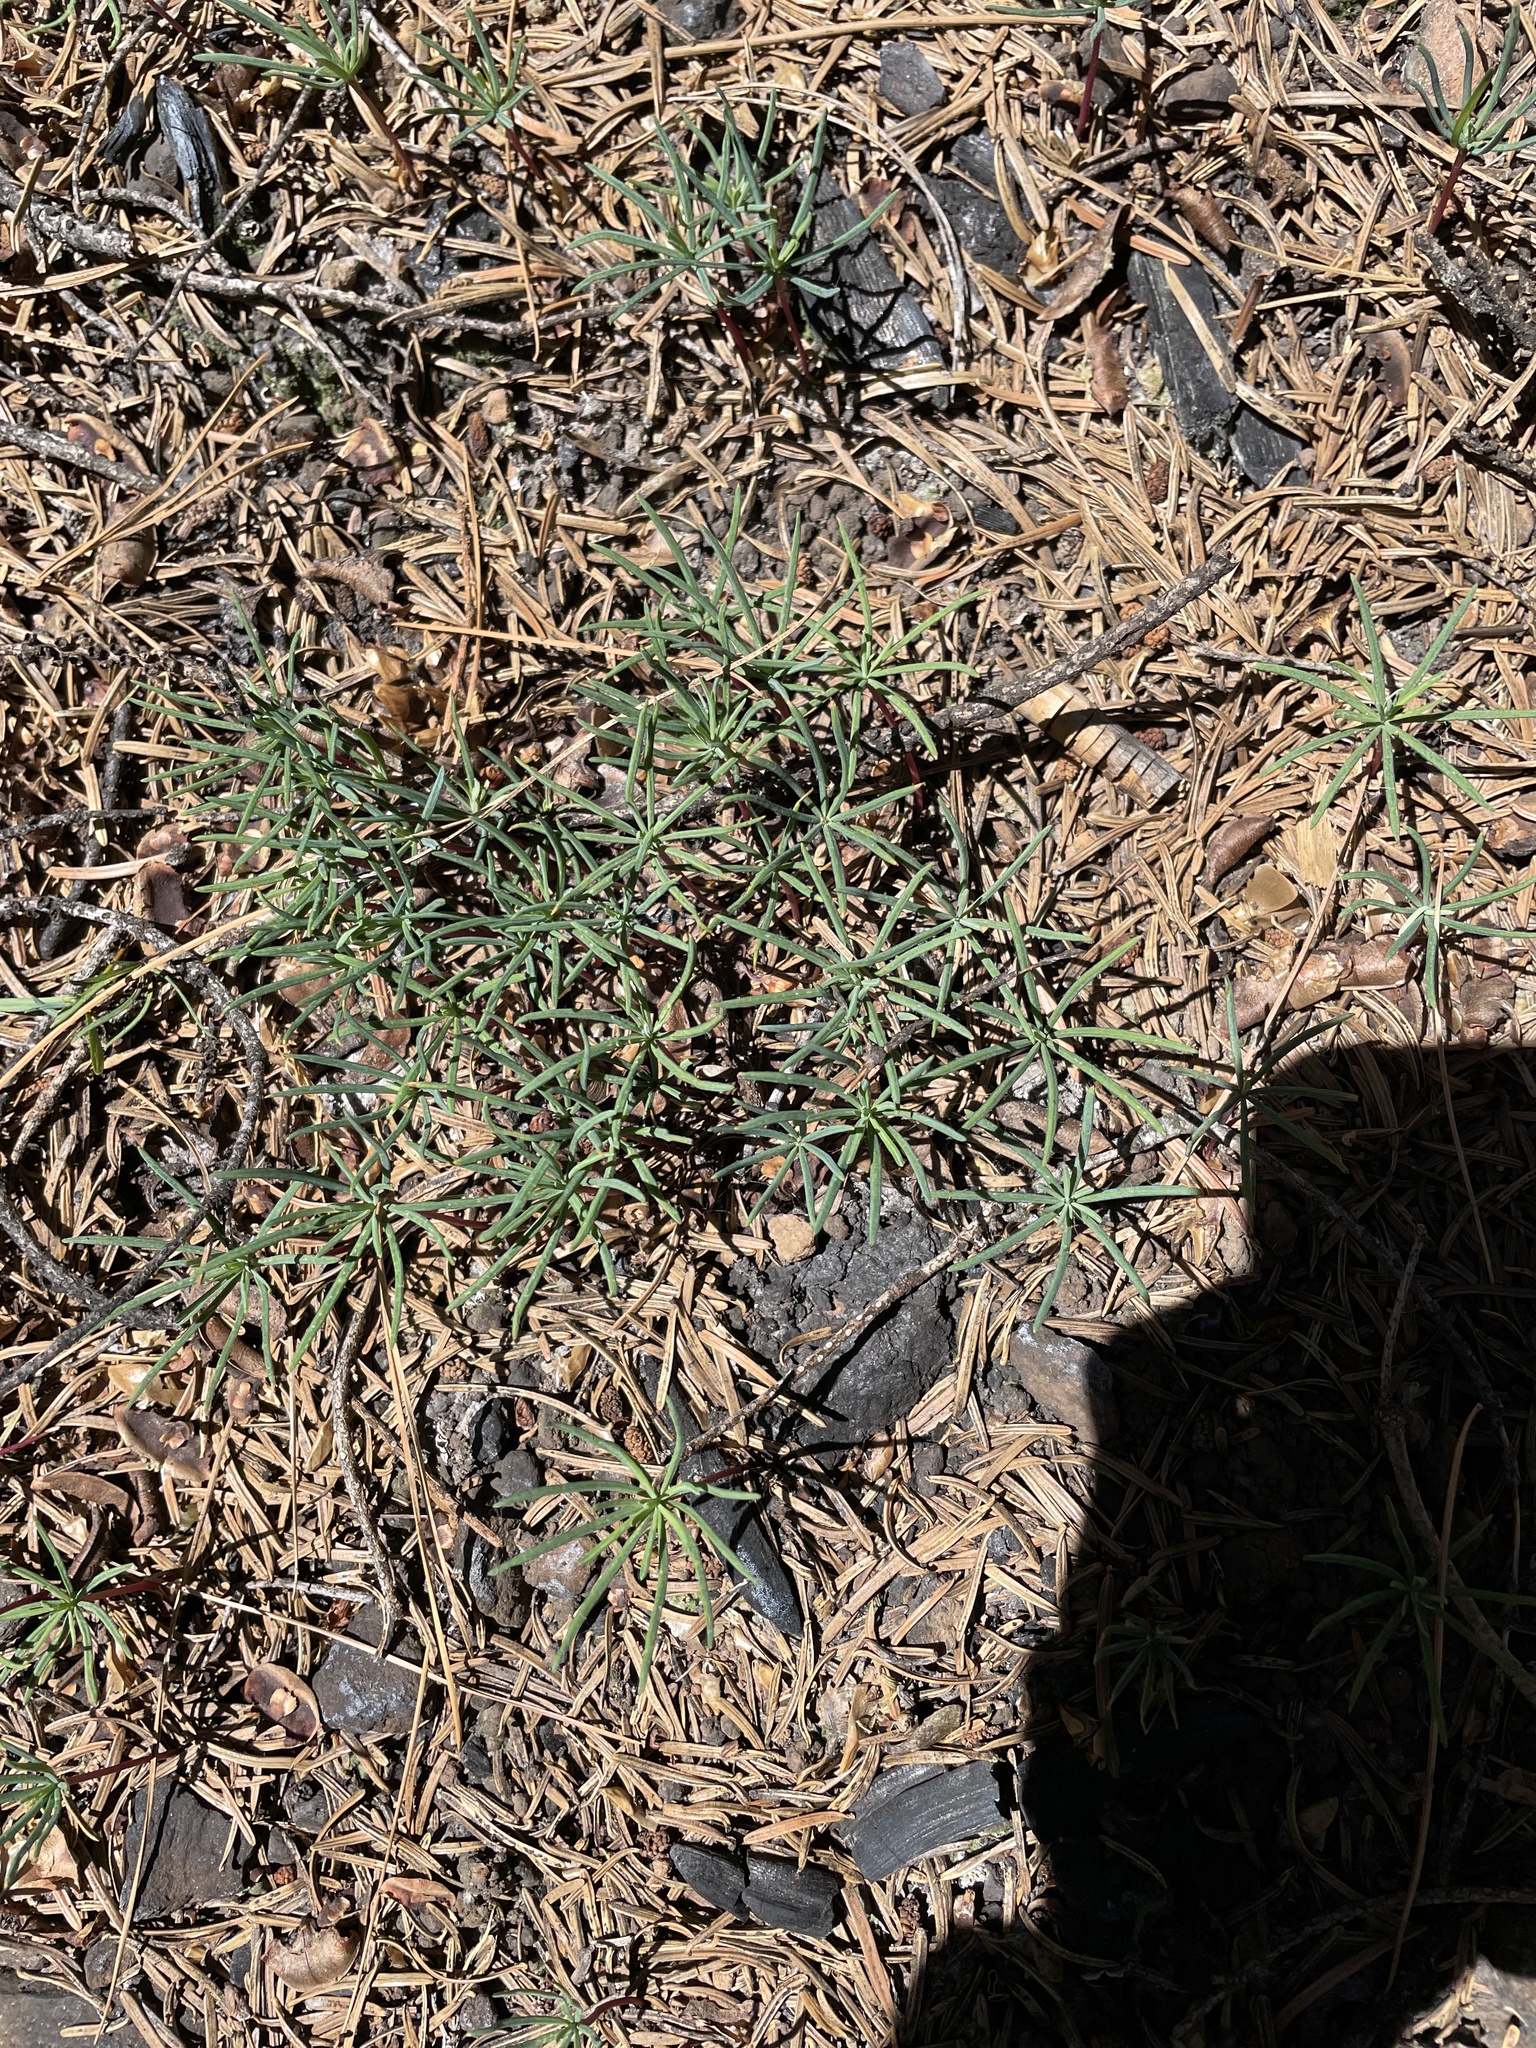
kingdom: Plantae
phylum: Tracheophyta
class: Pinopsida
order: Pinales
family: Pinaceae
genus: Abies
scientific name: Abies concolor
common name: Colorado fir
